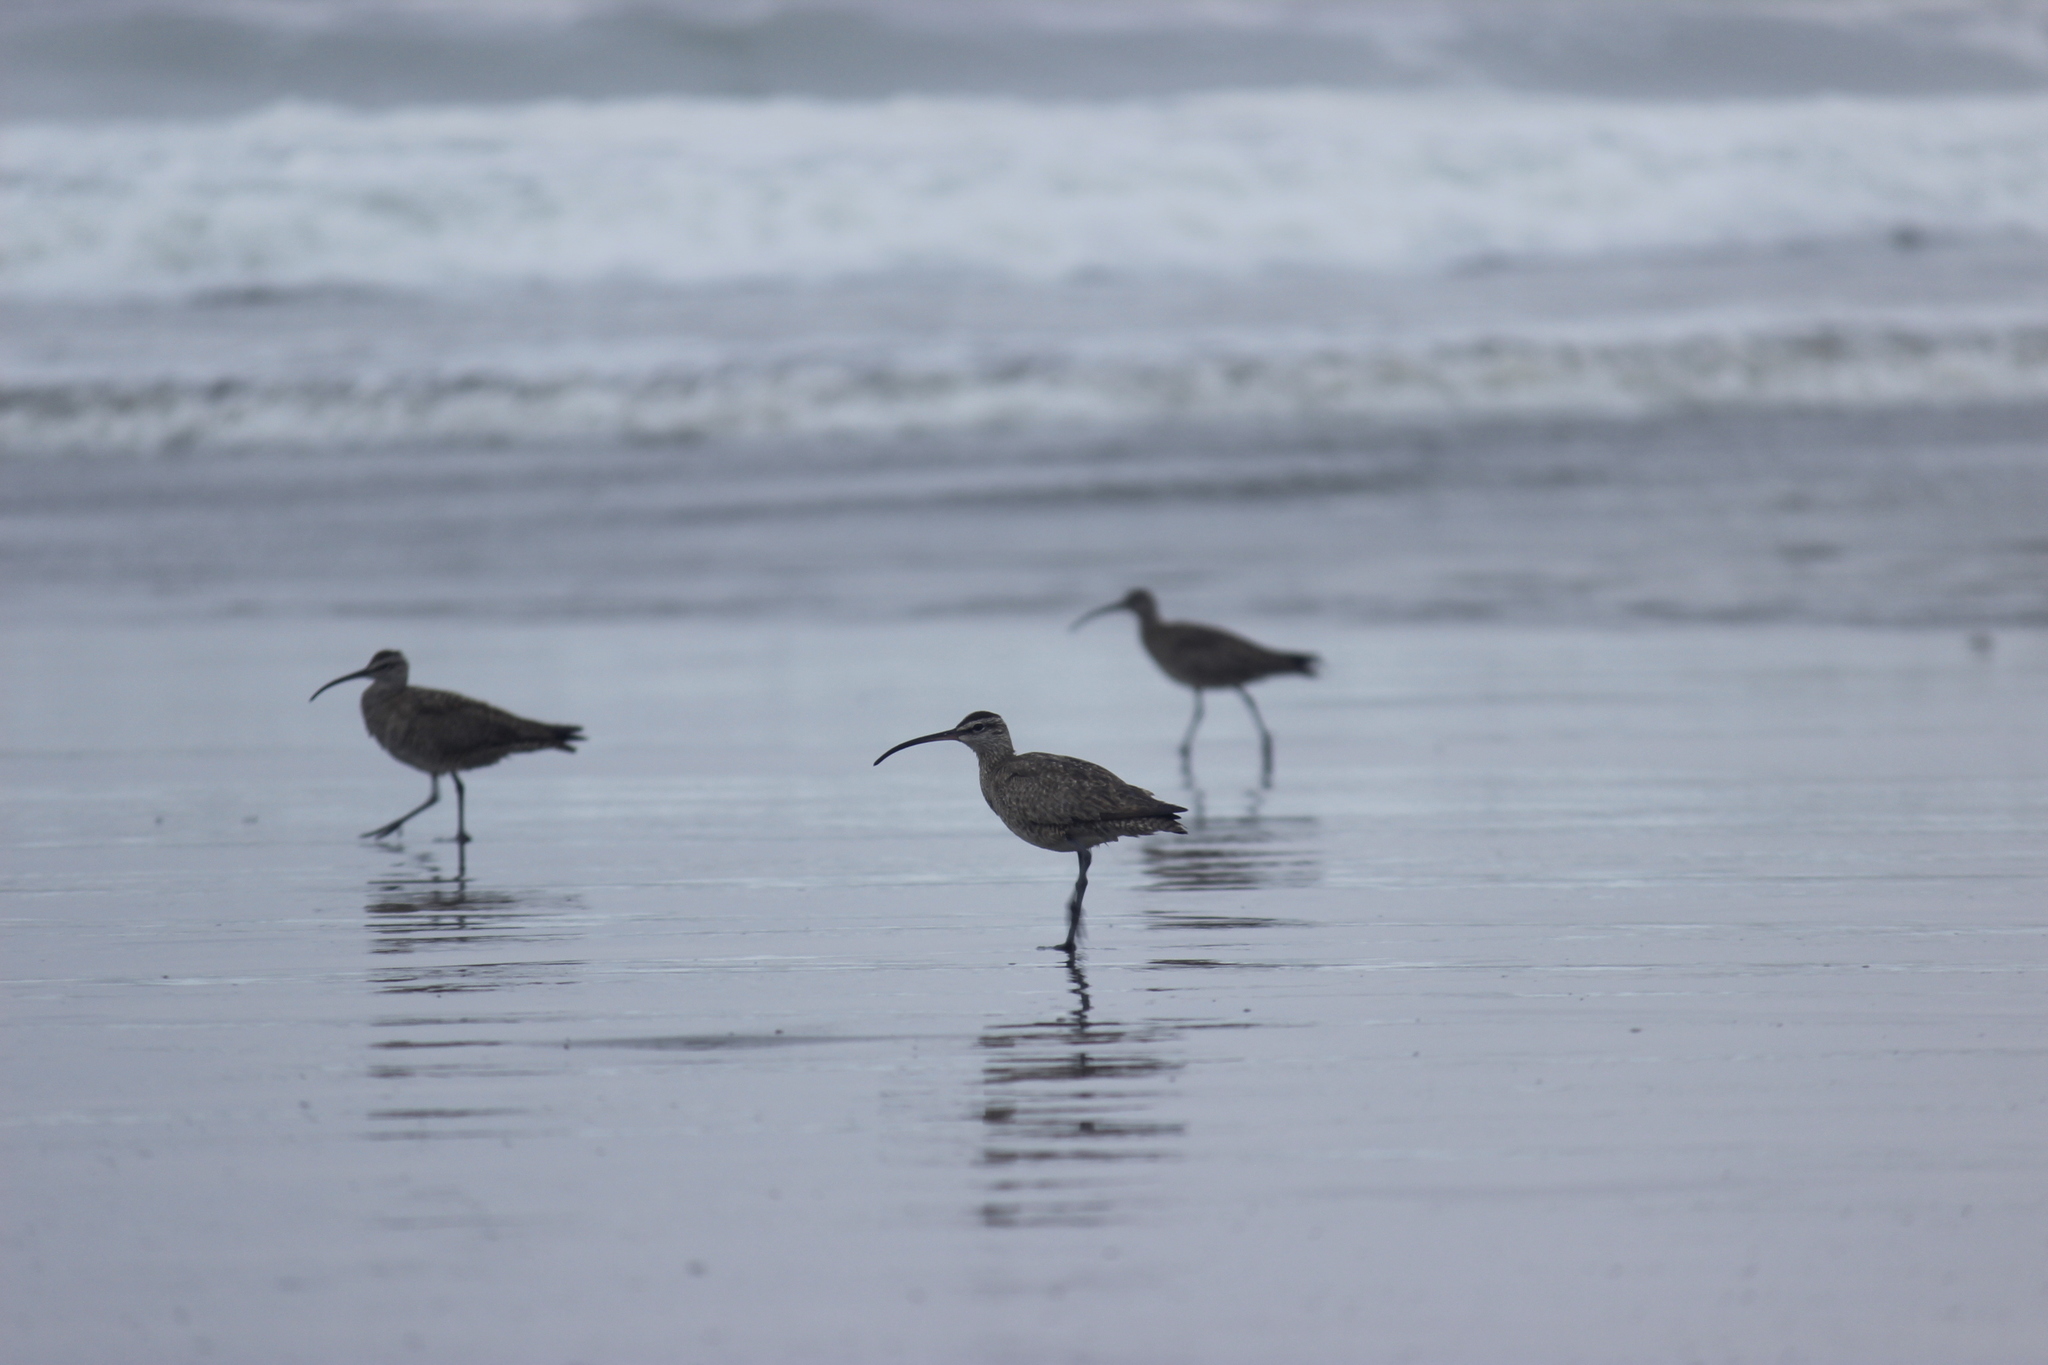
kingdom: Animalia
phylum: Chordata
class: Aves
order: Charadriiformes
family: Scolopacidae
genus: Numenius
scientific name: Numenius phaeopus
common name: Whimbrel
